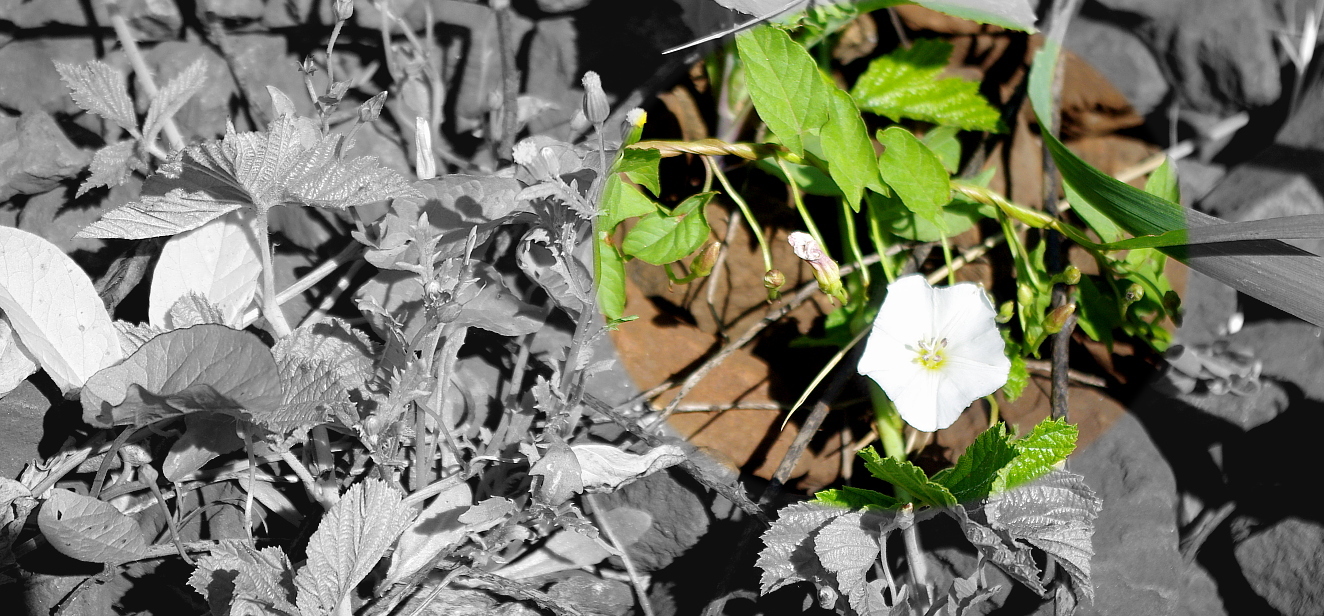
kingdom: Plantae
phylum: Tracheophyta
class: Magnoliopsida
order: Solanales
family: Convolvulaceae
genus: Convolvulus
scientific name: Convolvulus arvensis
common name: Field bindweed
